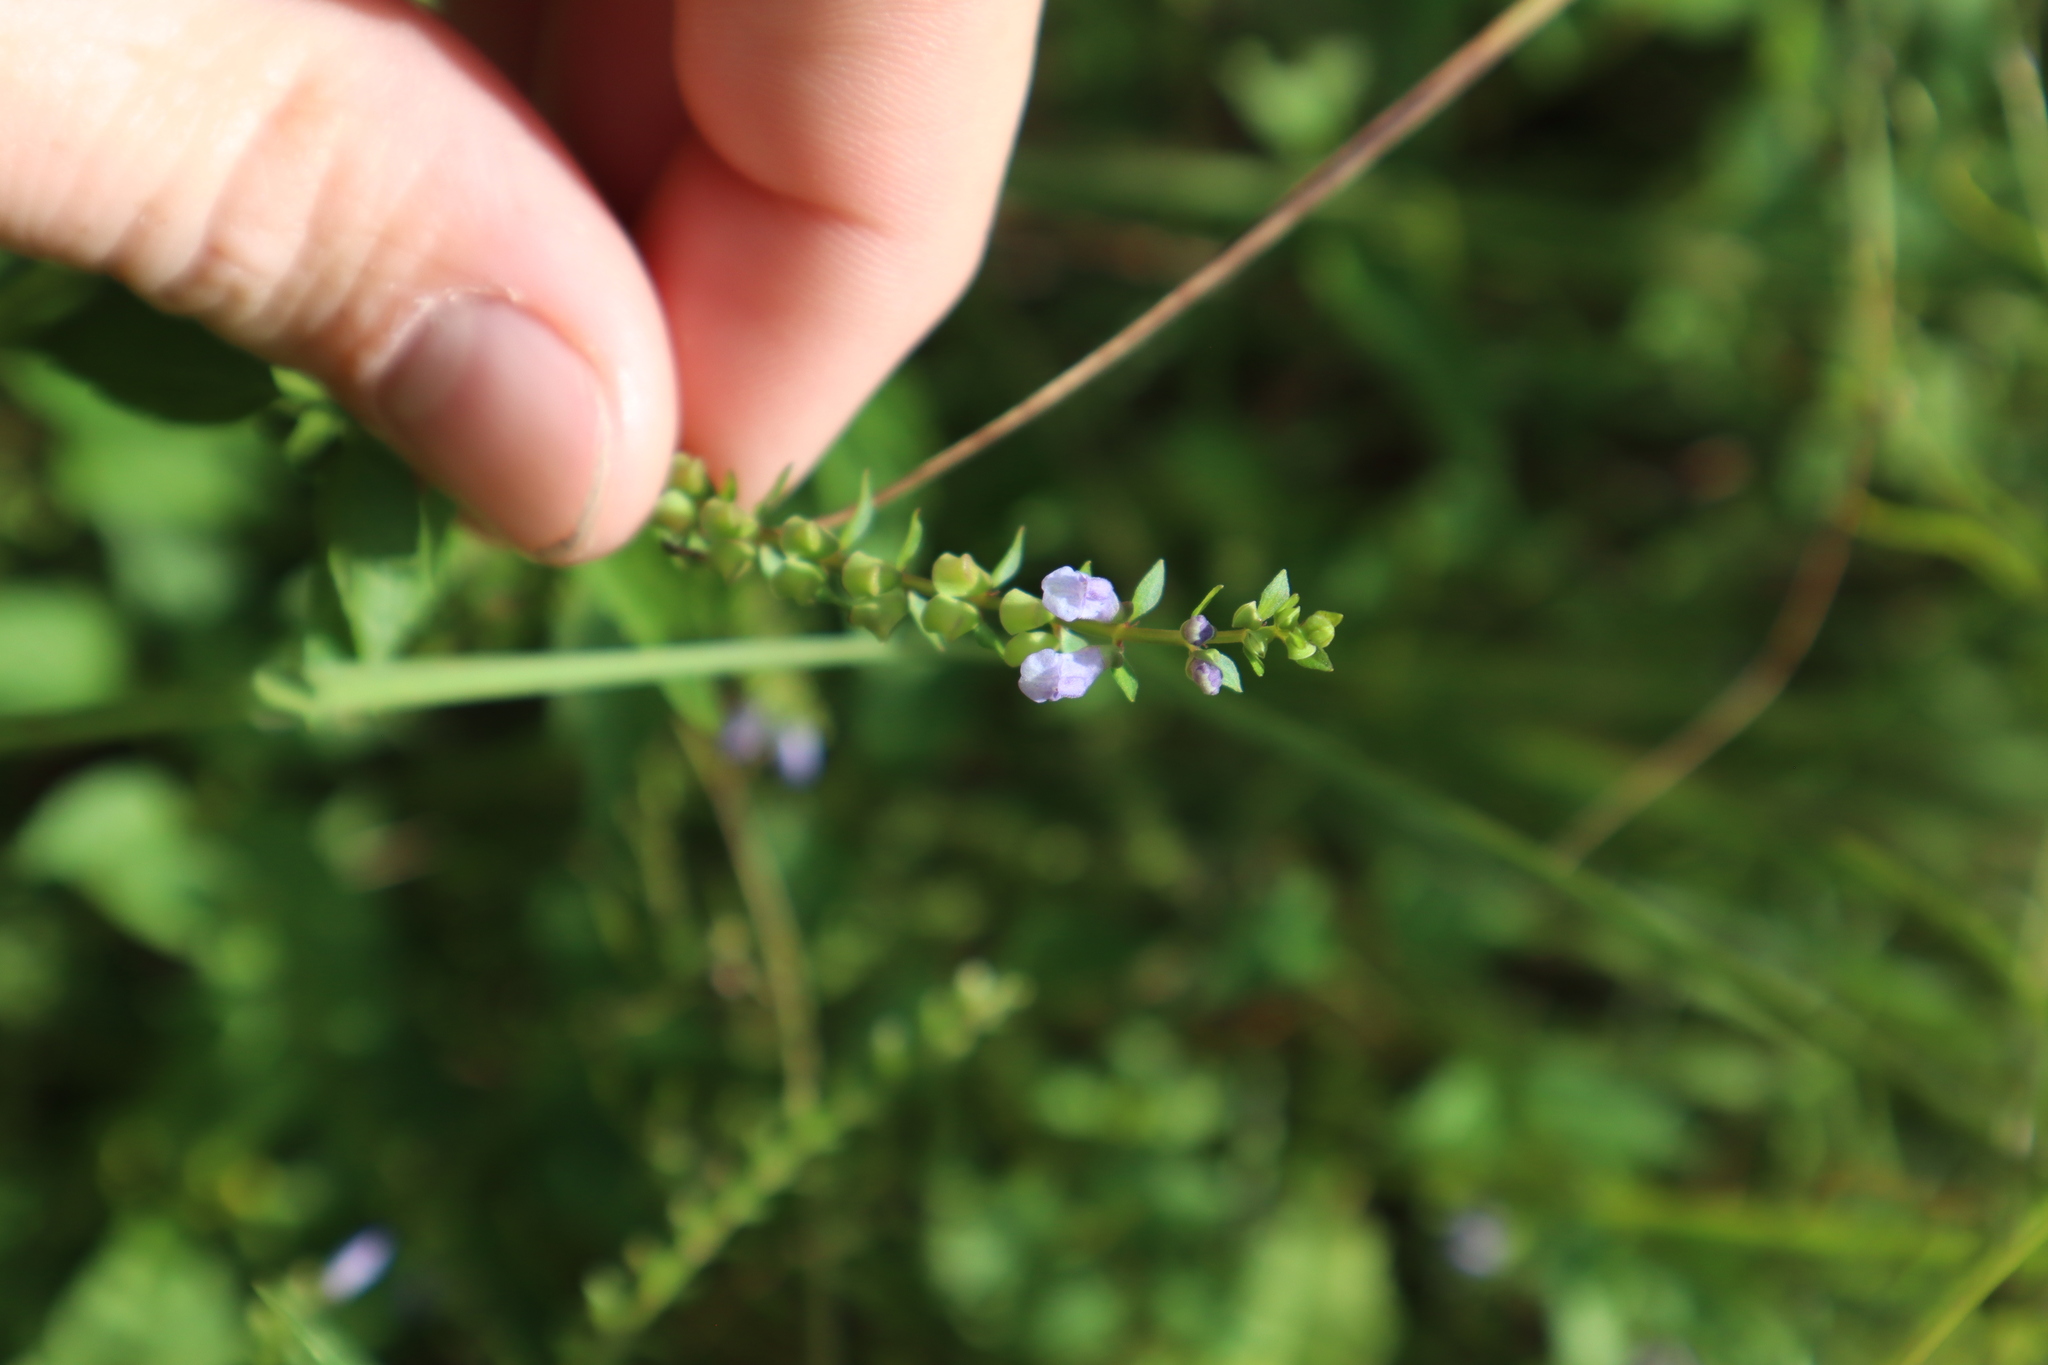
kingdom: Plantae
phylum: Tracheophyta
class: Magnoliopsida
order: Lamiales
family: Lamiaceae
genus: Scutellaria
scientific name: Scutellaria lateriflora
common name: Blue skullcap
